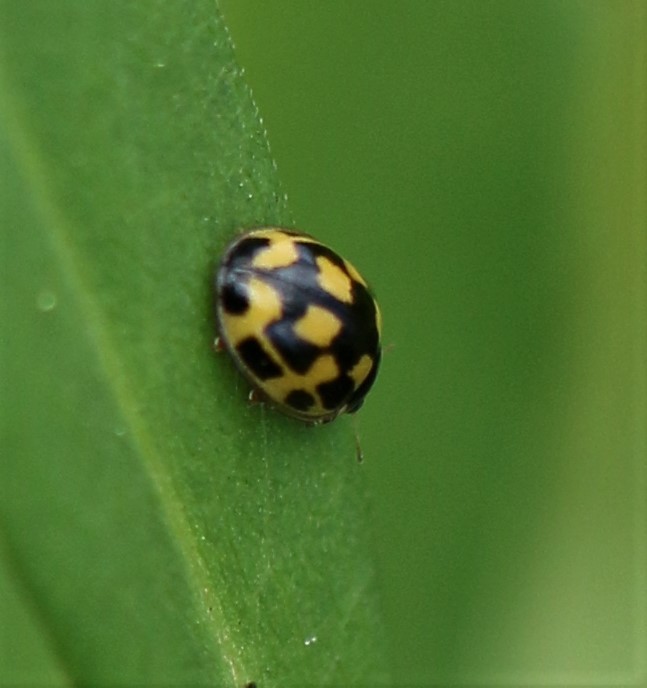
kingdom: Animalia
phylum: Arthropoda
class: Insecta
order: Coleoptera
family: Coccinellidae
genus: Propylaea
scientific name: Propylaea quatuordecimpunctata
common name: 14-spotted ladybird beetle
